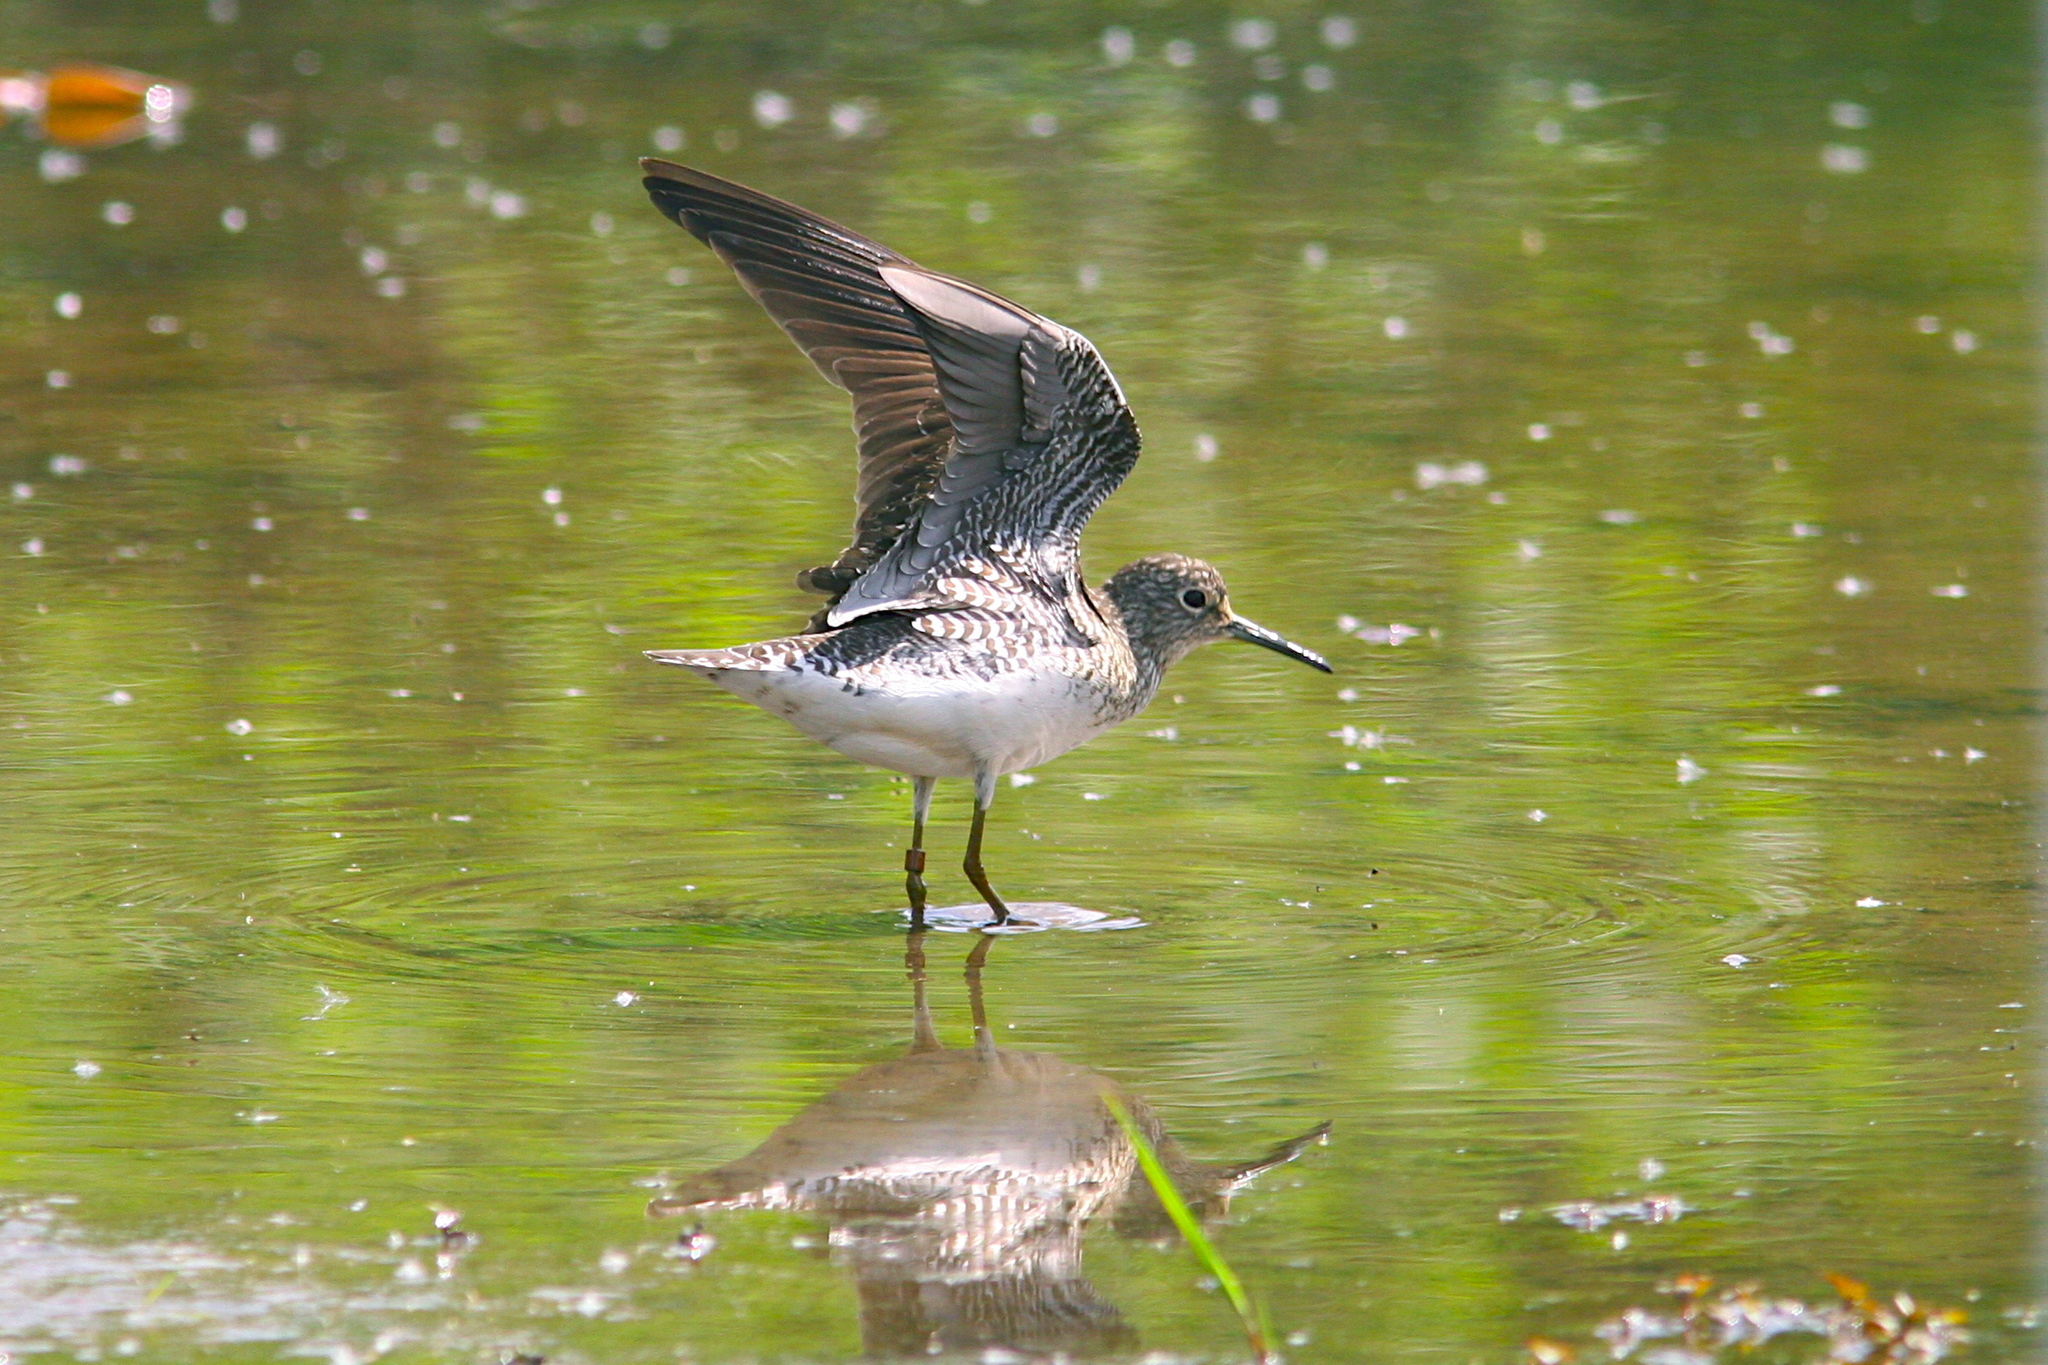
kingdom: Animalia
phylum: Chordata
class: Aves
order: Charadriiformes
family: Scolopacidae
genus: Tringa
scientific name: Tringa solitaria
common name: Solitary sandpiper
